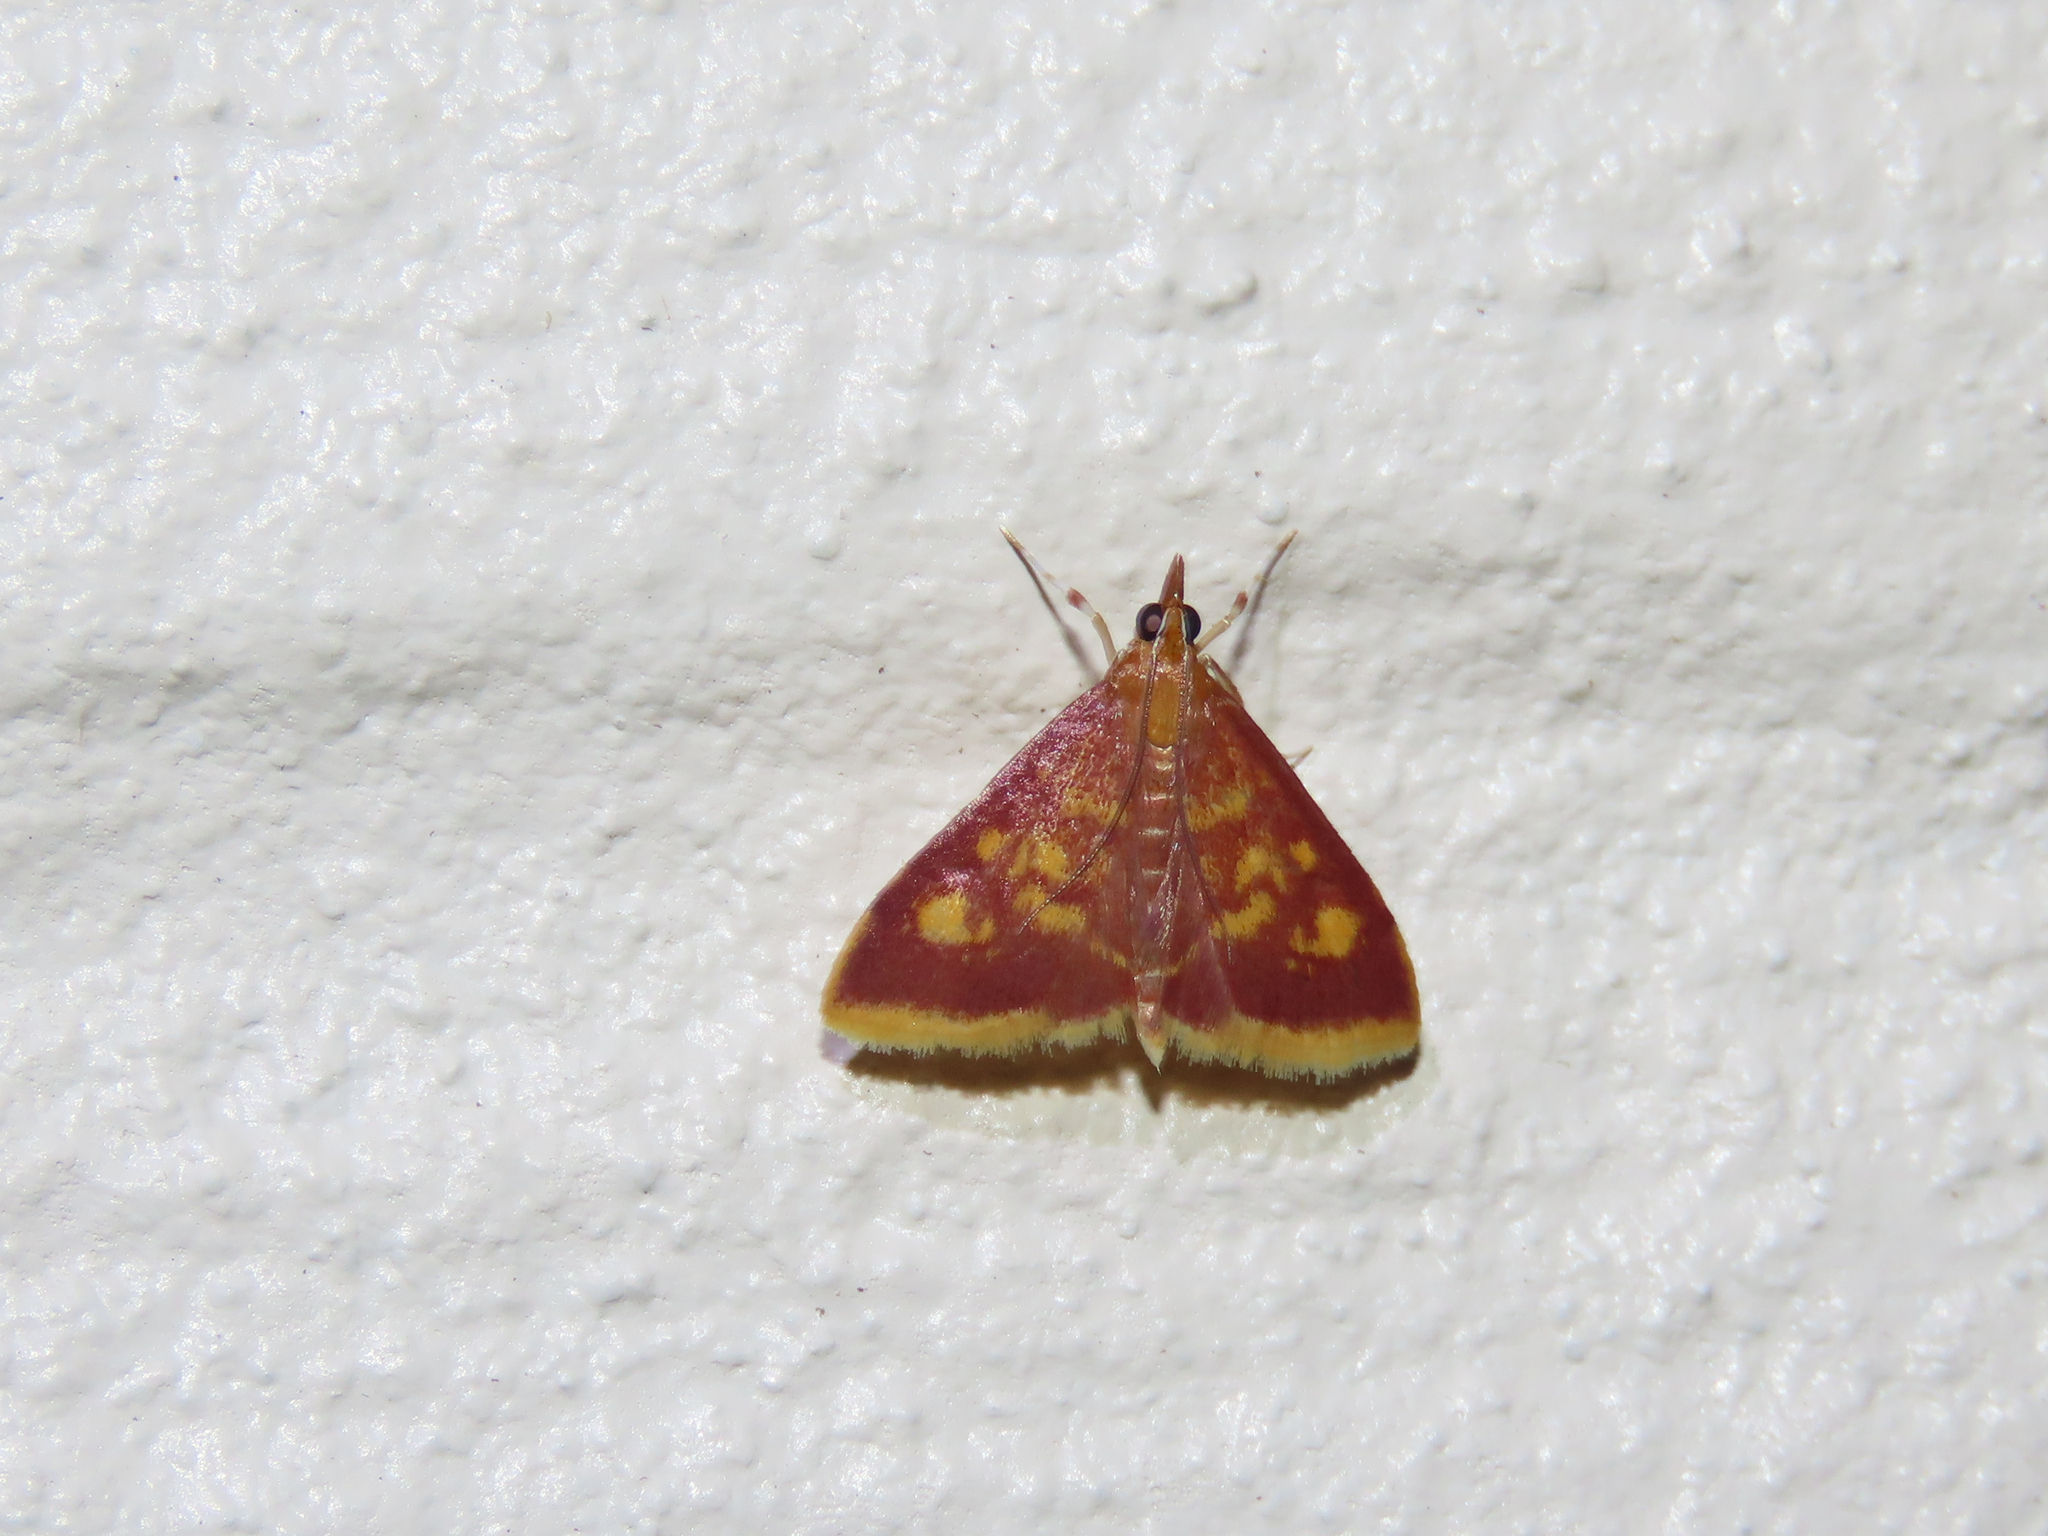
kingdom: Animalia
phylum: Arthropoda
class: Insecta
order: Lepidoptera
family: Crambidae
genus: Pyrausta
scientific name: Pyrausta acrionalis
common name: Mint-loving pyrausta moth
